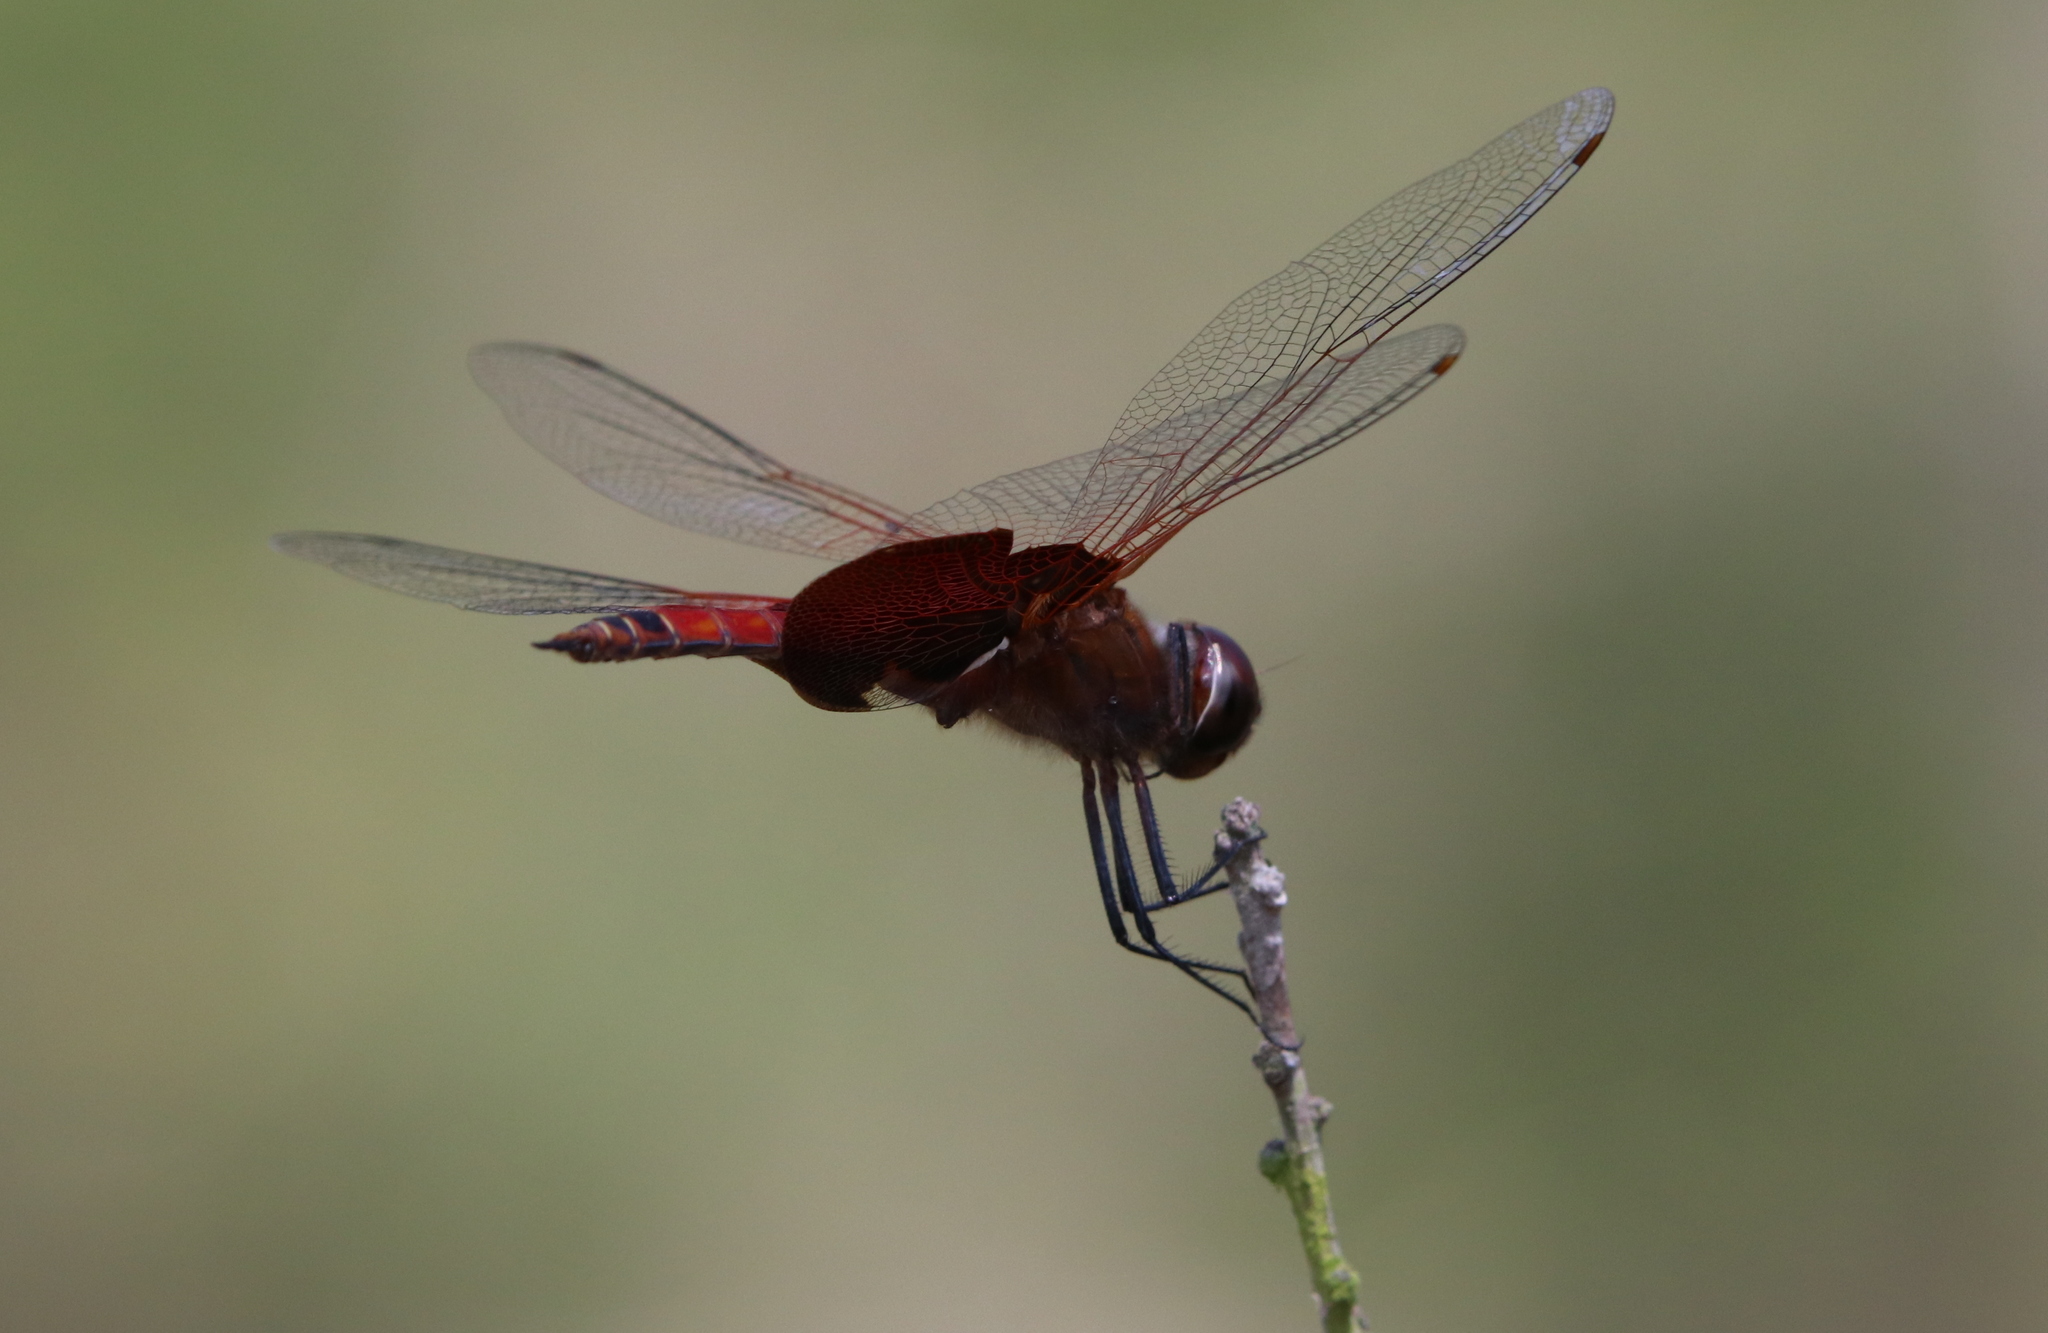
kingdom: Animalia
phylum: Arthropoda
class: Insecta
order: Odonata
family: Libellulidae
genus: Tramea
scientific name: Tramea carolina
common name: Carolina saddlebags
